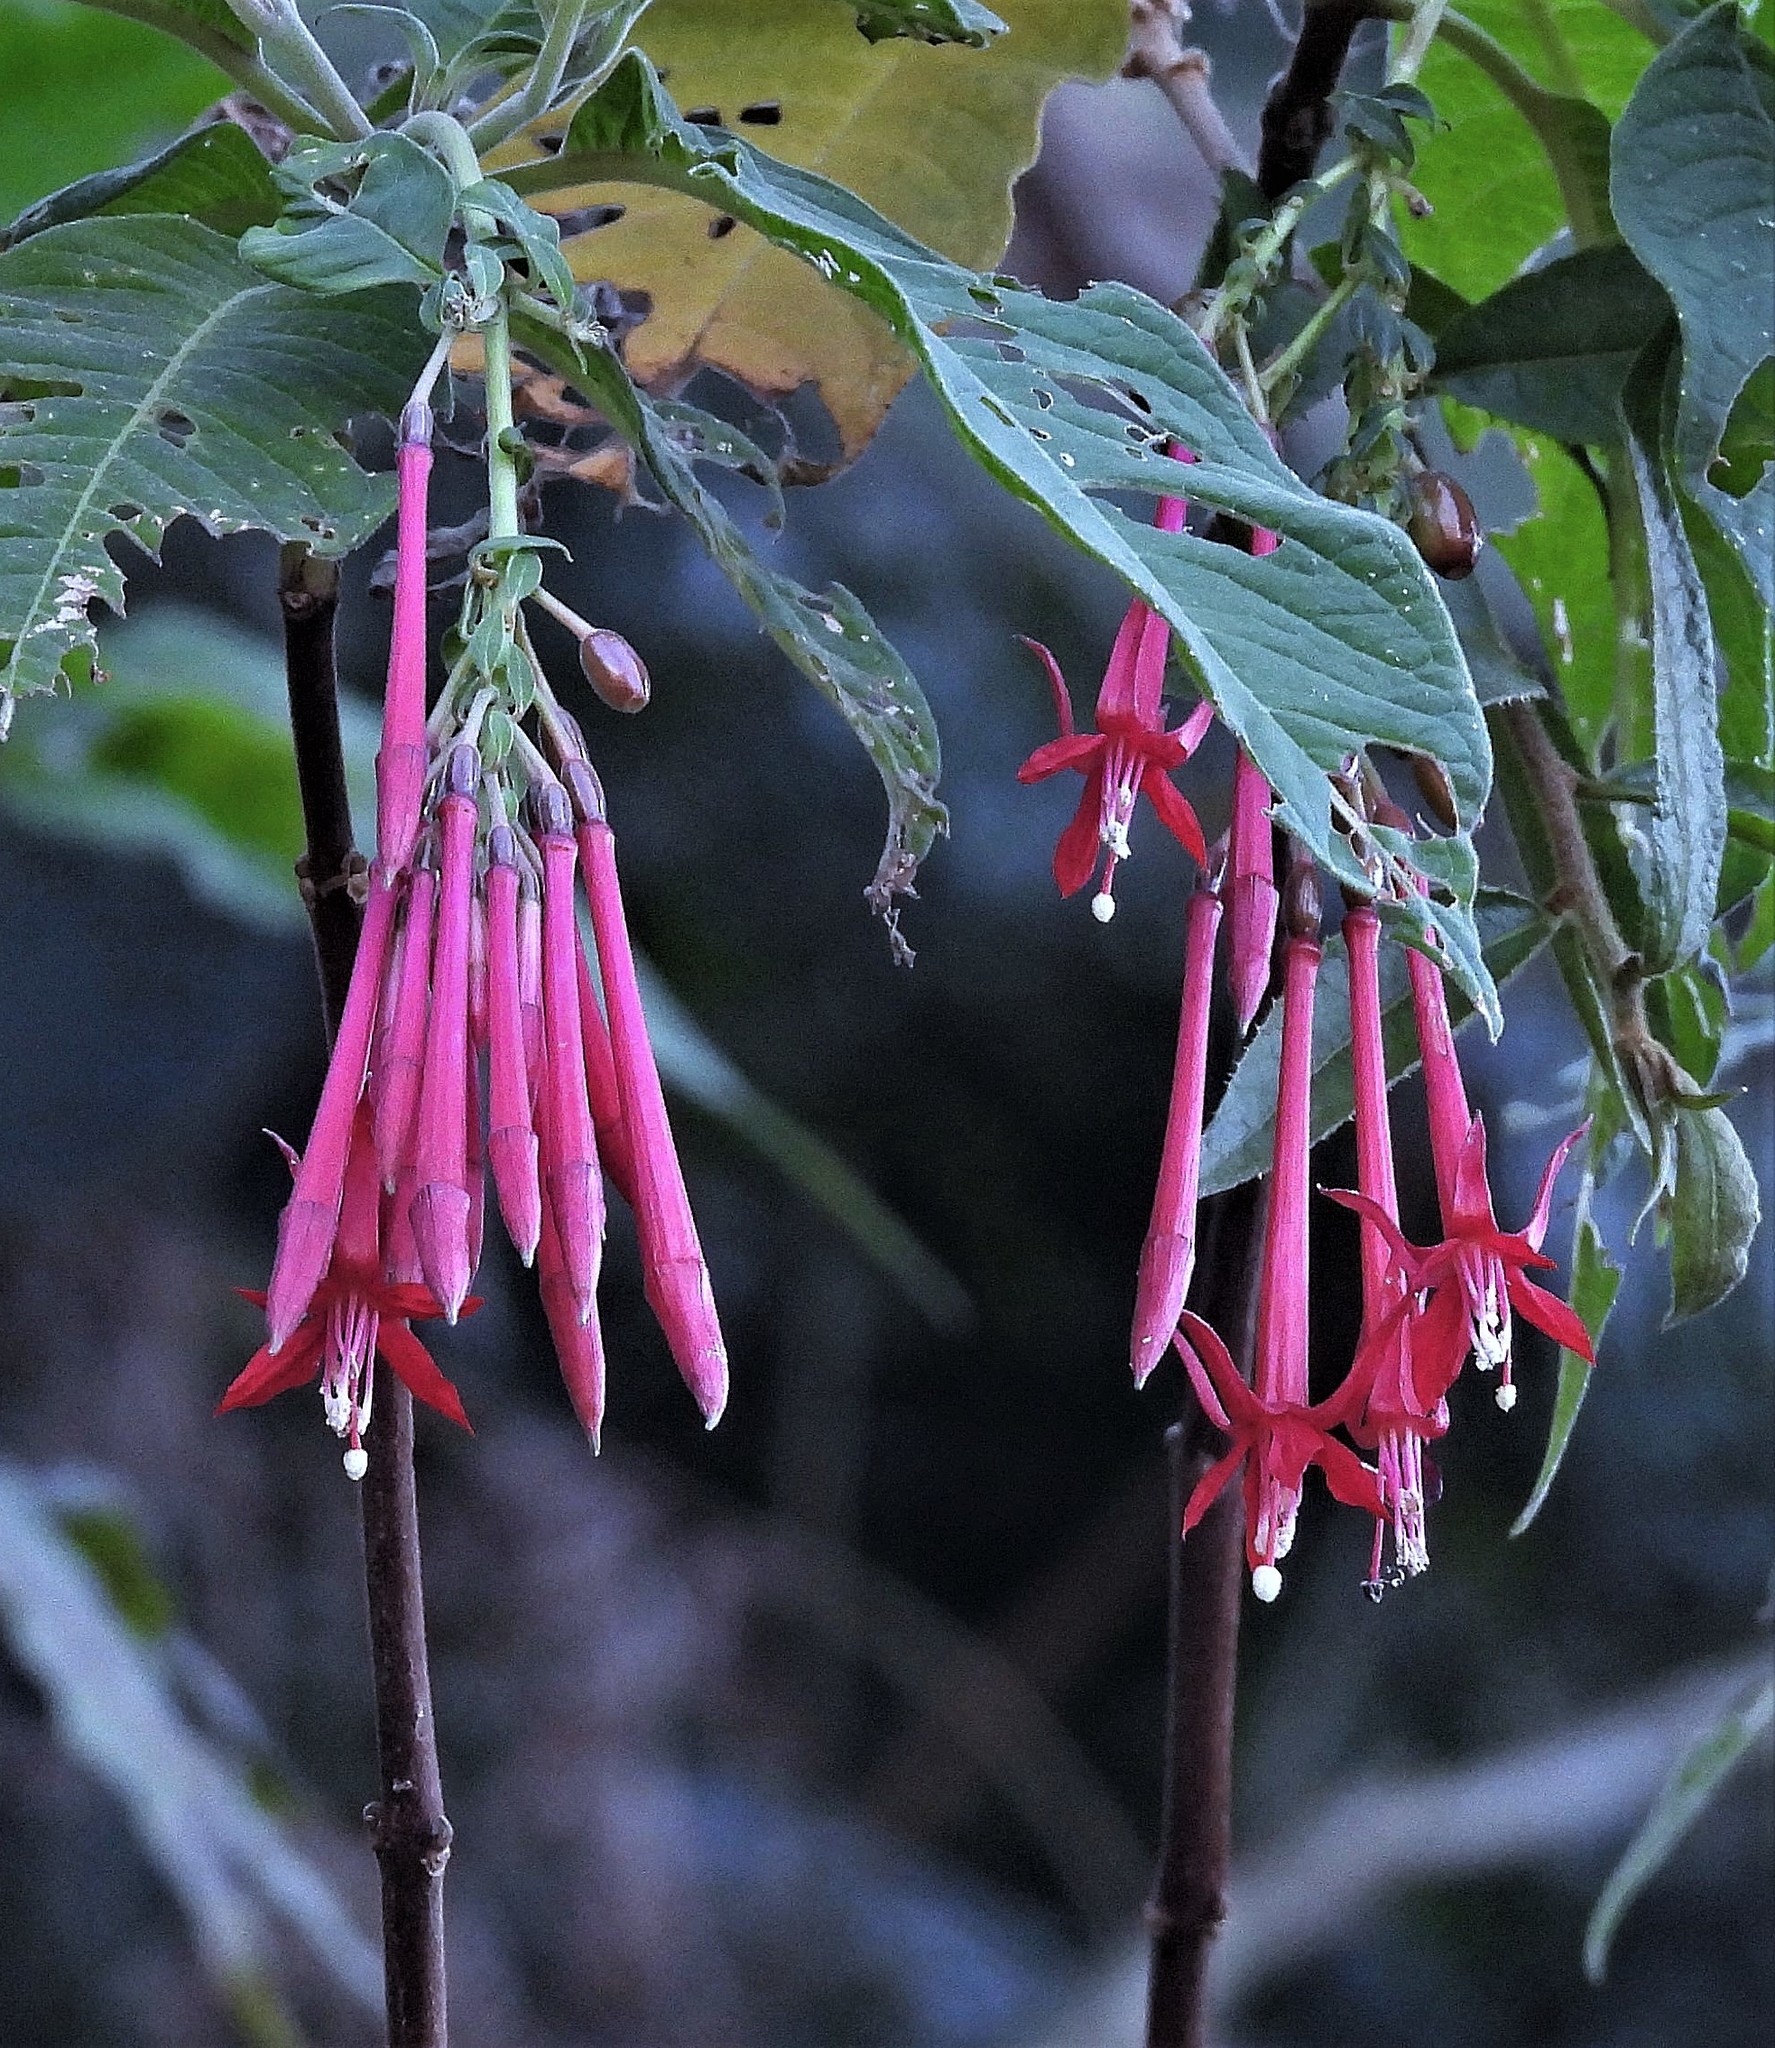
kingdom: Plantae
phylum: Tracheophyta
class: Magnoliopsida
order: Myrtales
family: Onagraceae
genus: Fuchsia
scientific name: Fuchsia boliviana
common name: Bolivian fuchsia
